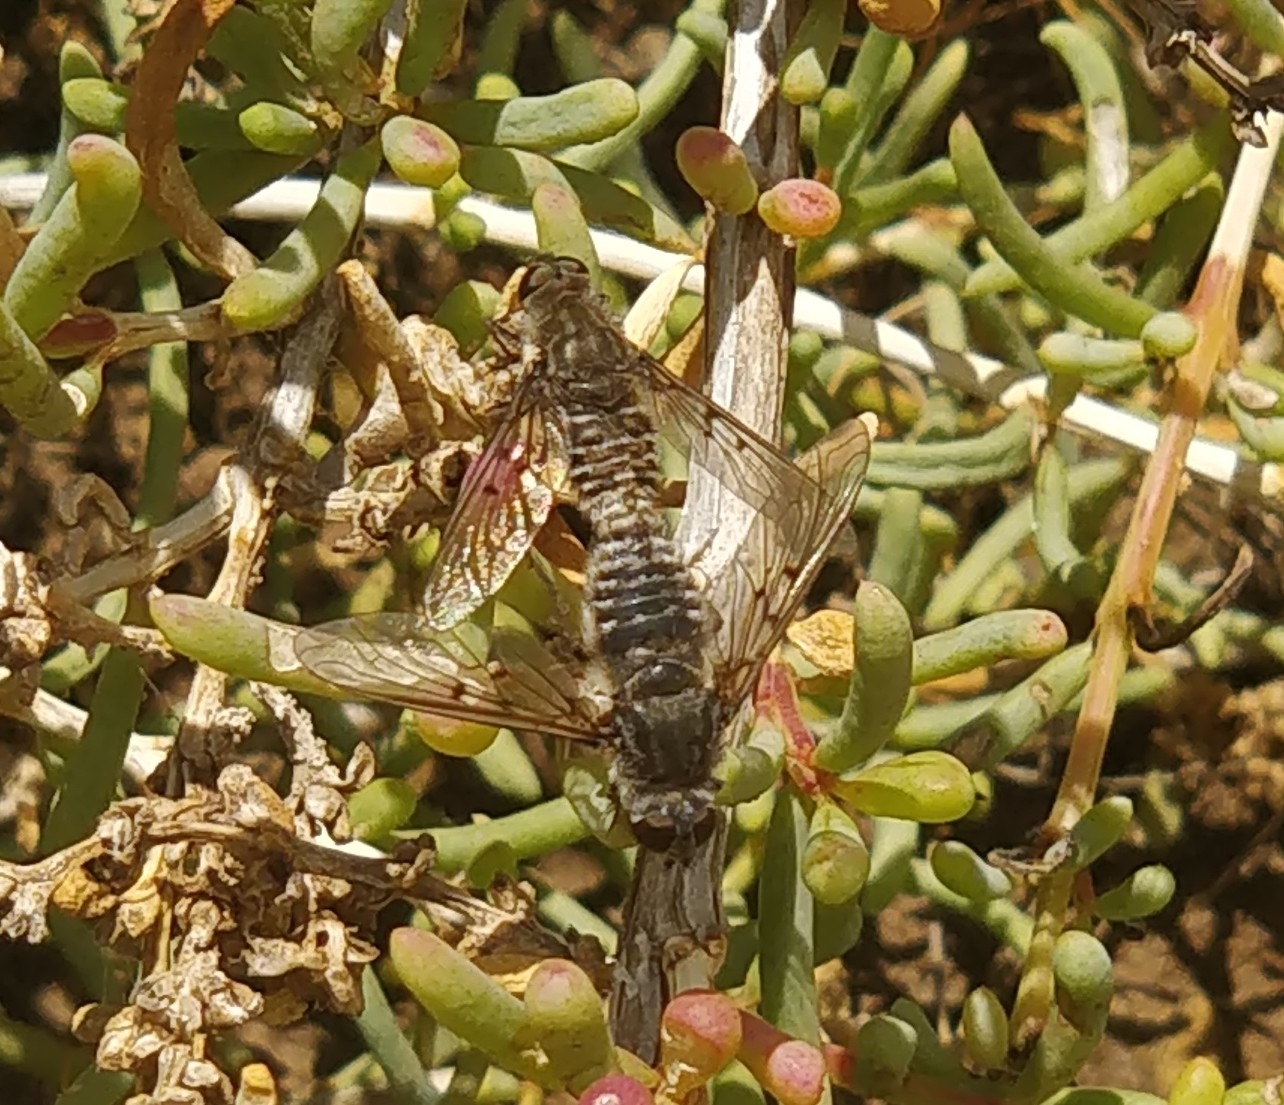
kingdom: Animalia
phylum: Arthropoda
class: Insecta
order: Diptera
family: Bombyliidae
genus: Spogostylum
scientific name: Spogostylum trinotatum
